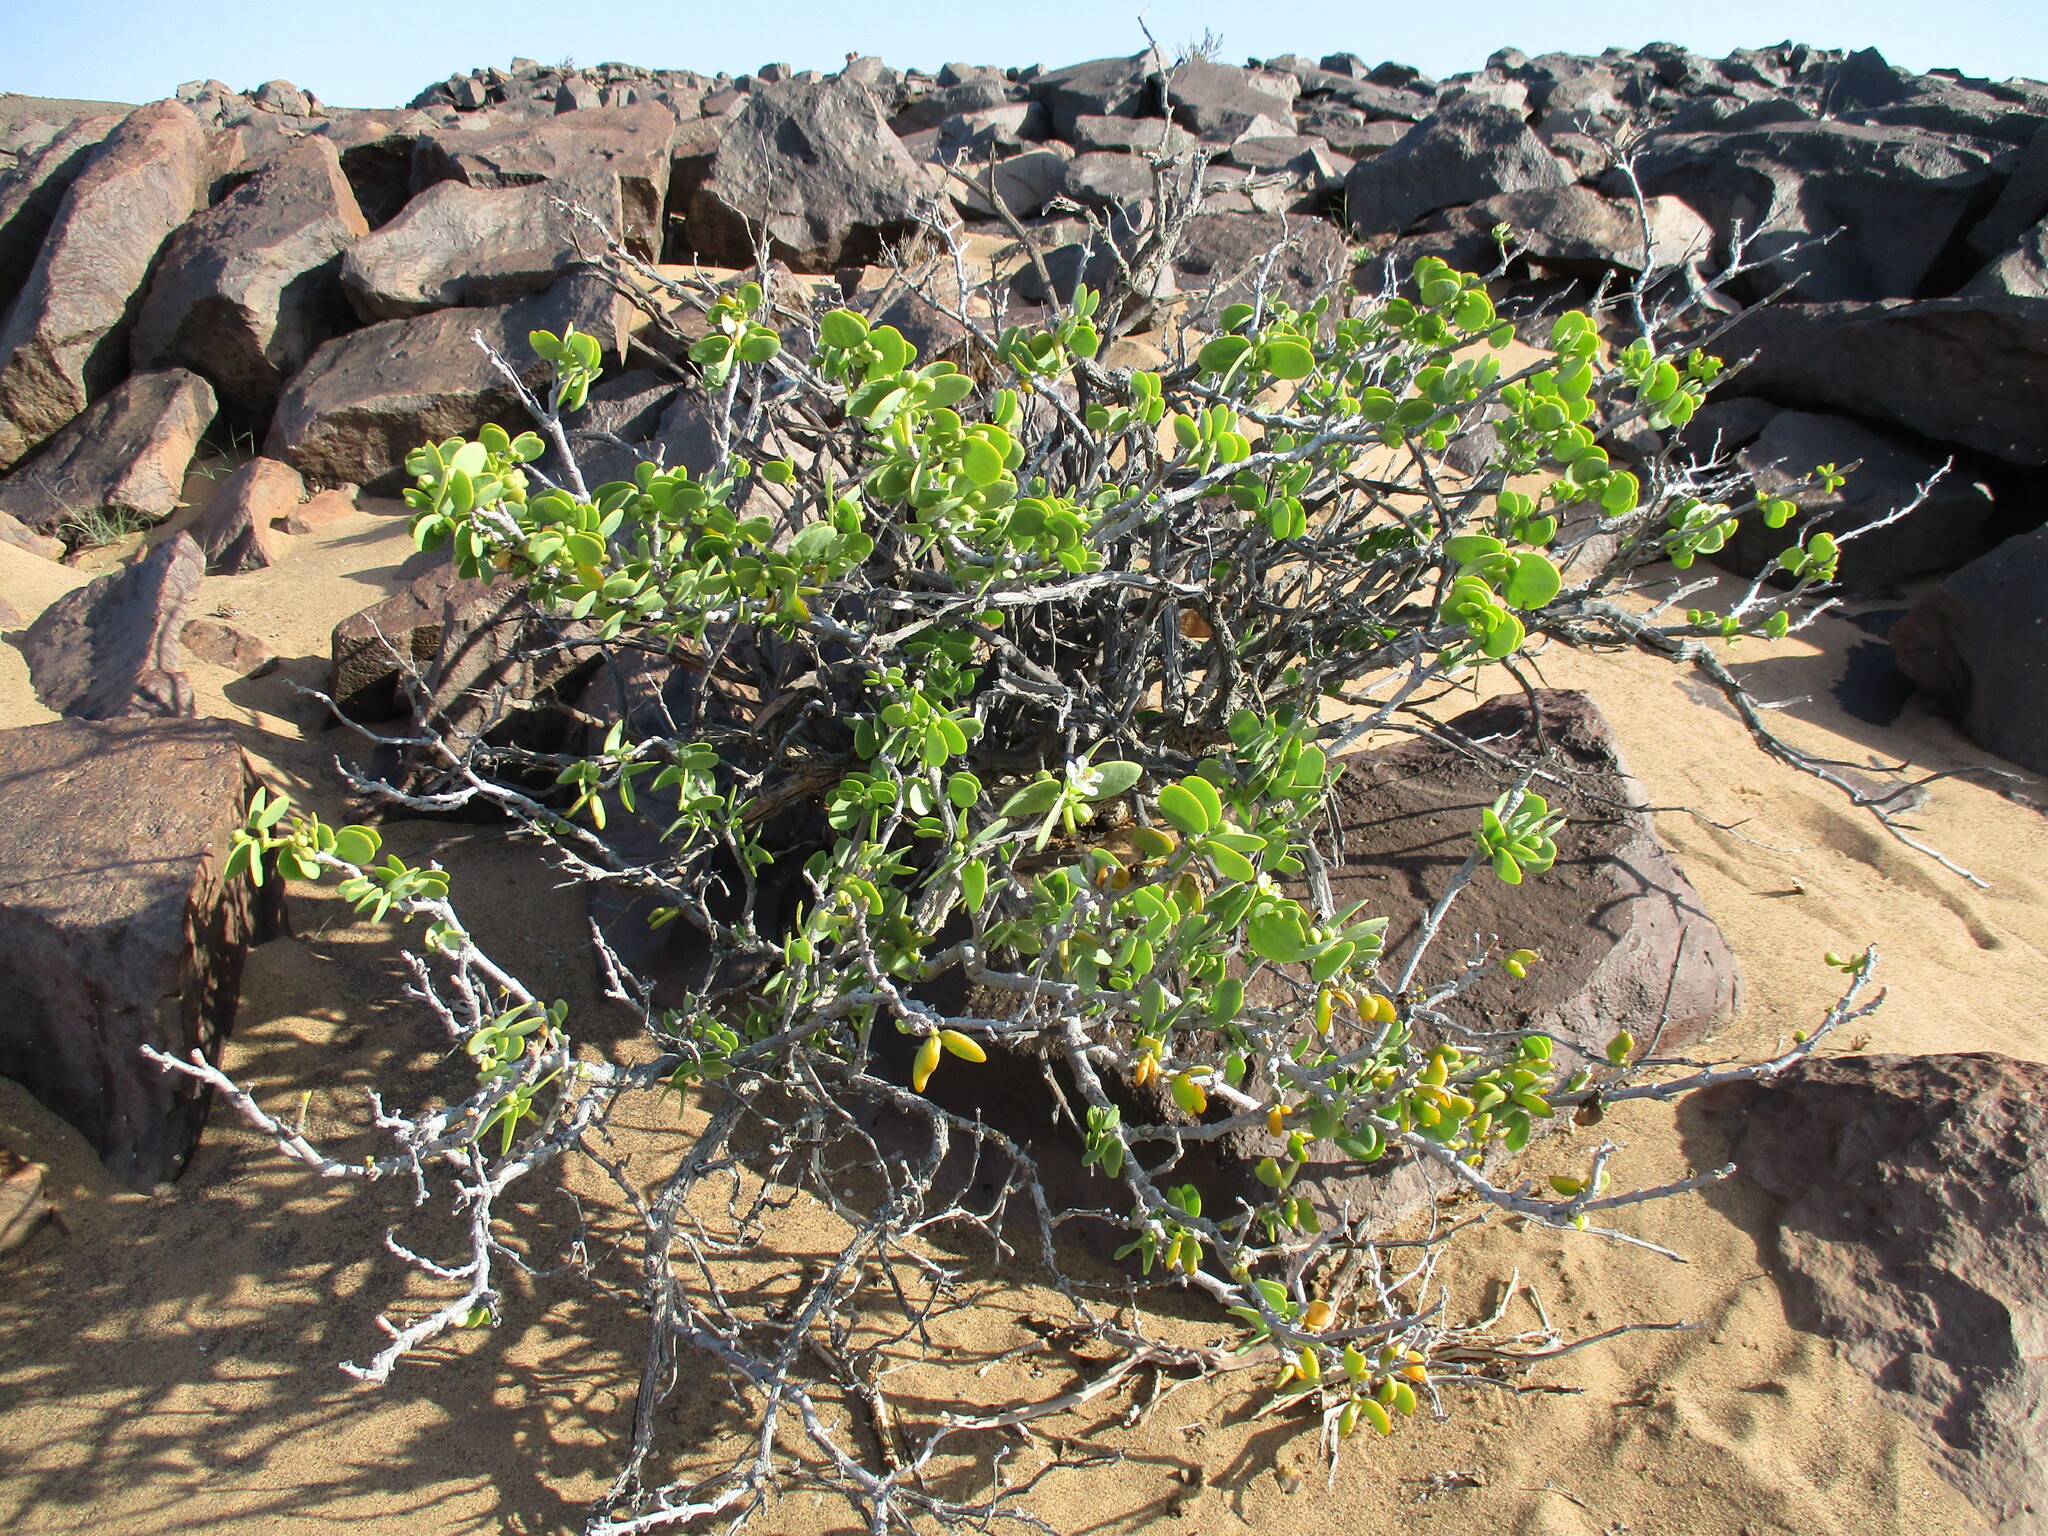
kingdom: Plantae
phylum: Tracheophyta
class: Magnoliopsida
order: Zygophyllales
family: Zygophyllaceae
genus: Tetraena
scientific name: Tetraena stapfii
